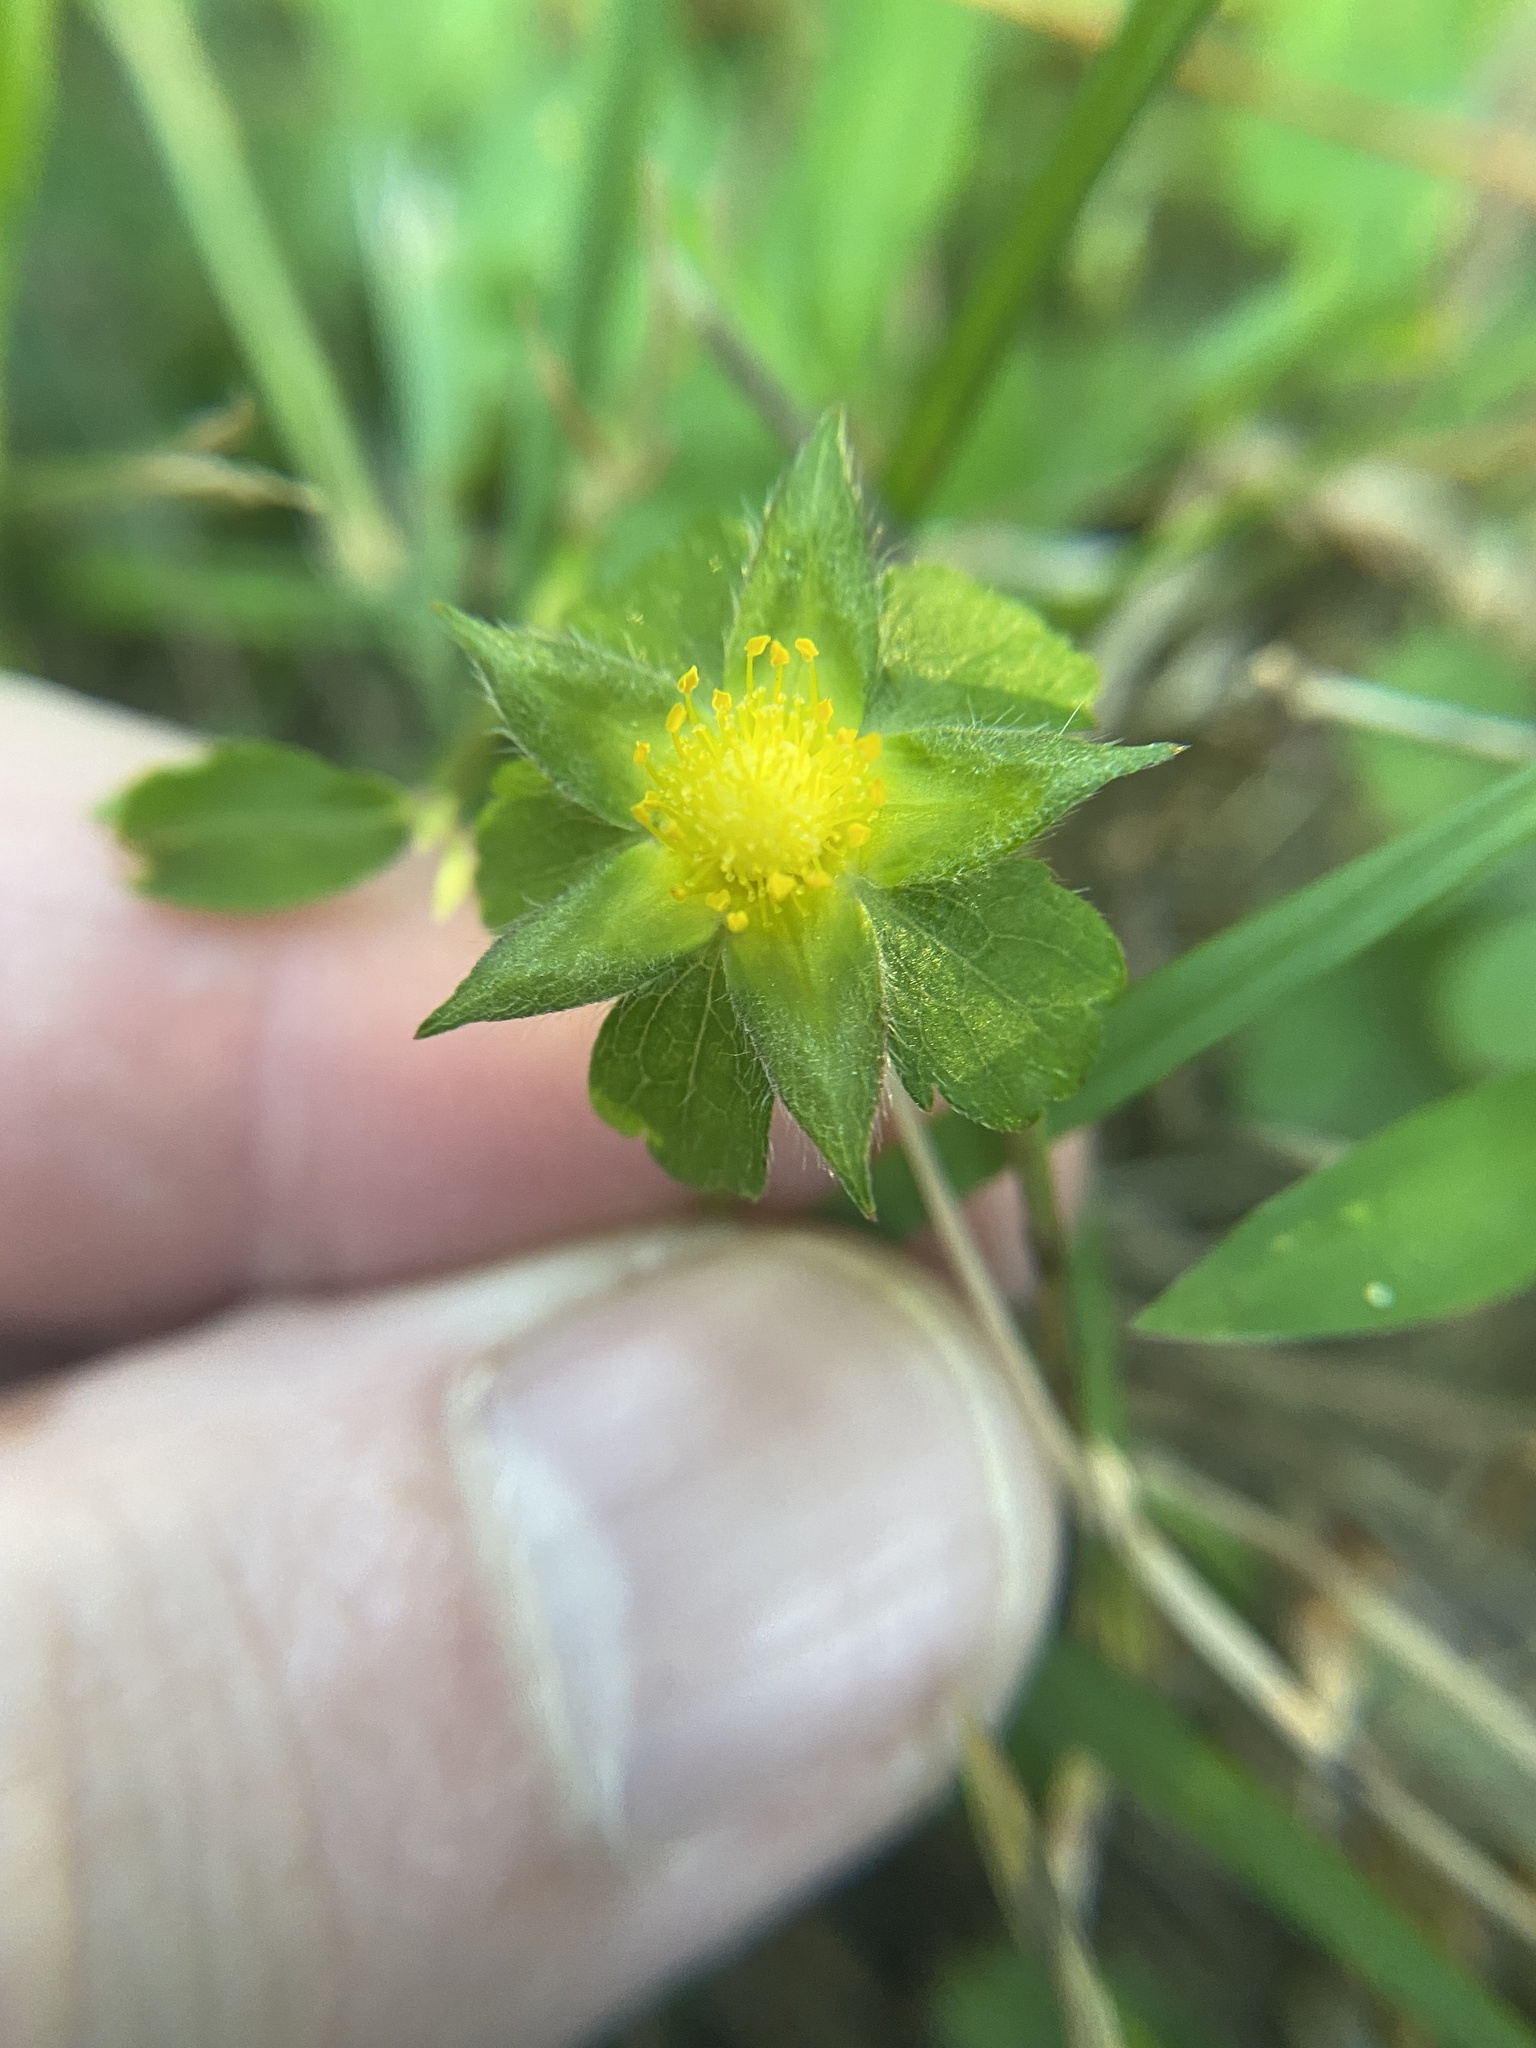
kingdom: Plantae
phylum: Tracheophyta
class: Magnoliopsida
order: Rosales
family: Rosaceae
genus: Potentilla
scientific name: Potentilla indica
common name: Yellow-flowered strawberry
